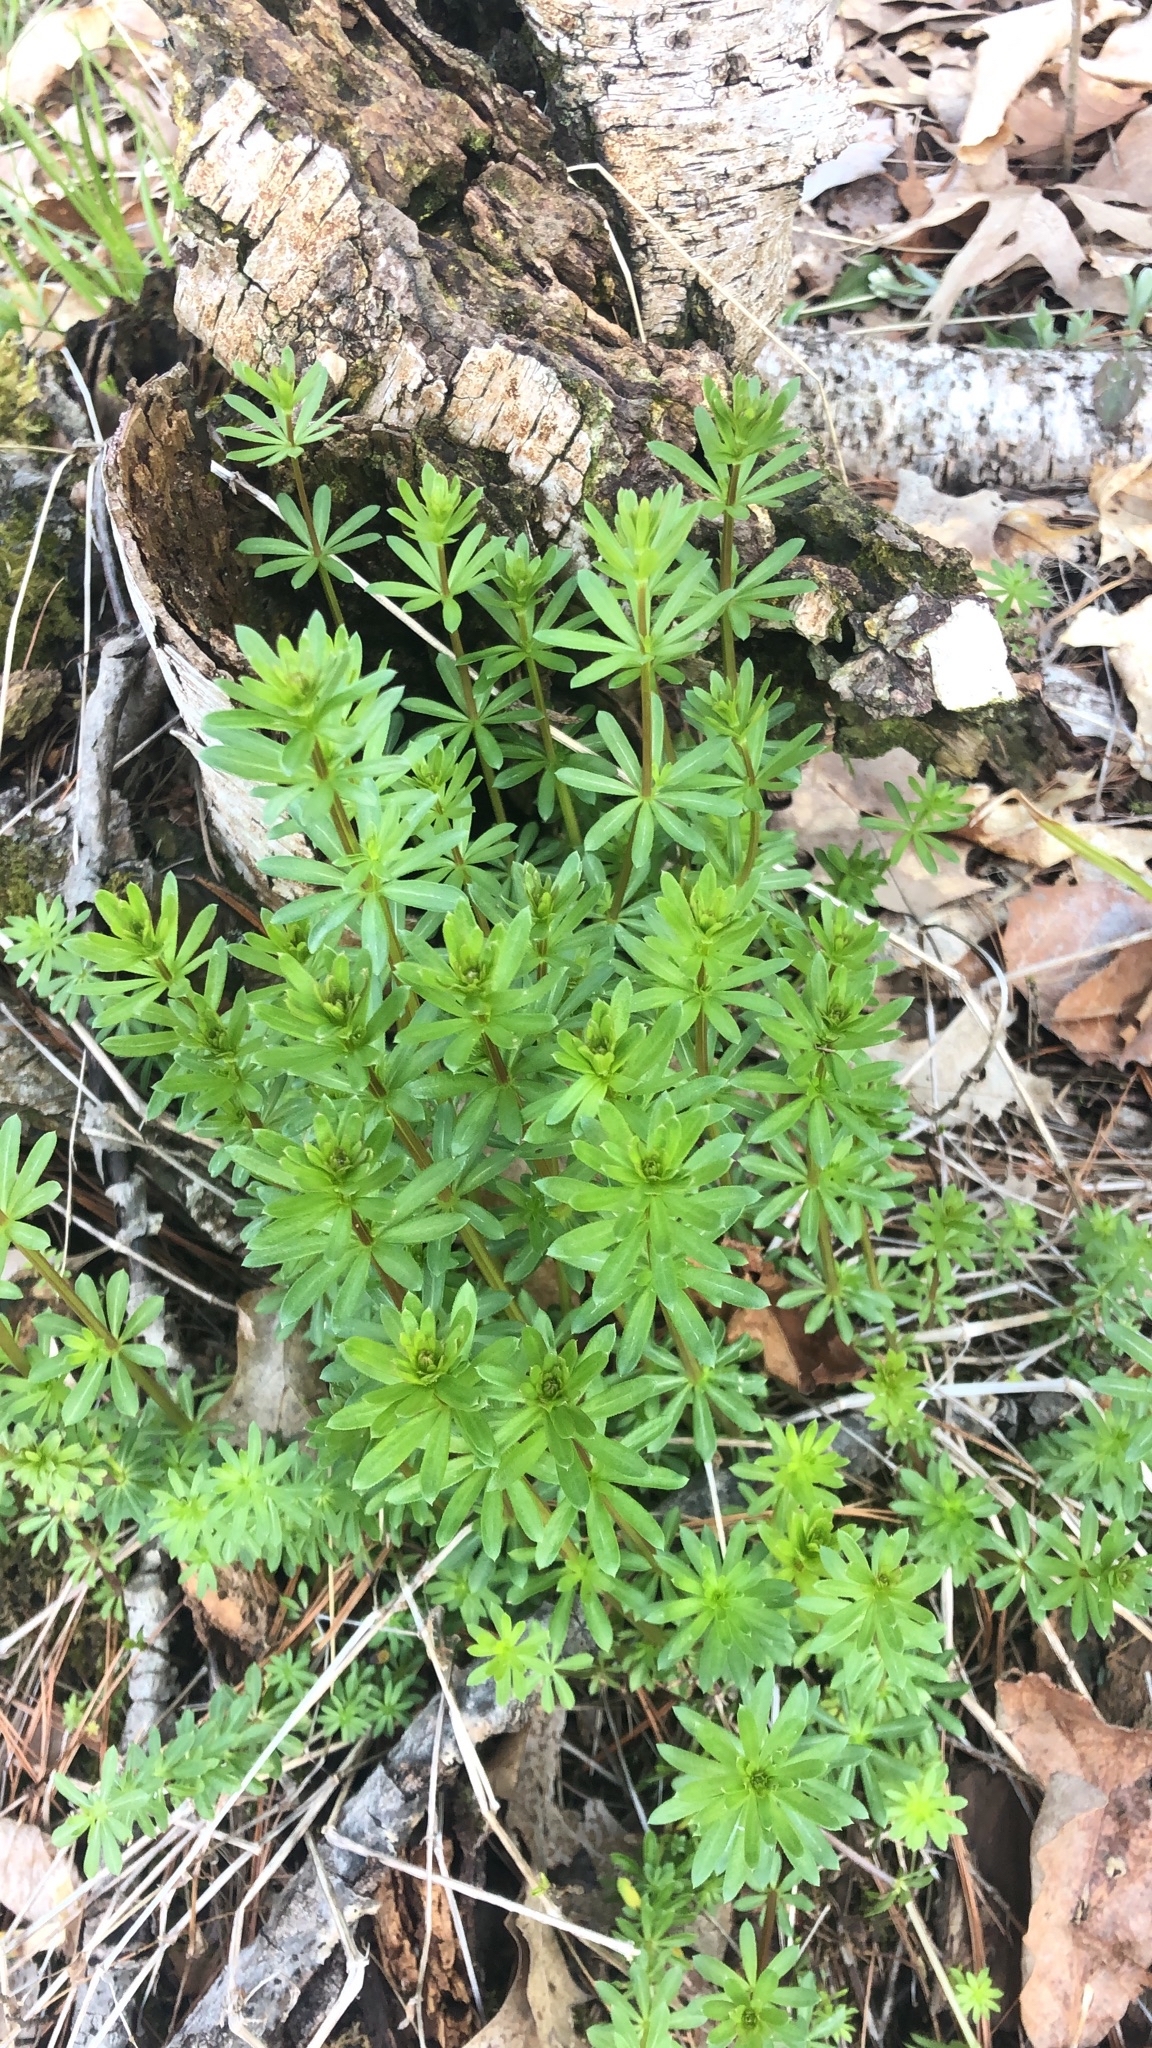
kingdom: Plantae
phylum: Tracheophyta
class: Magnoliopsida
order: Gentianales
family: Rubiaceae
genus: Galium
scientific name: Galium mollugo
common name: Hedge bedstraw
